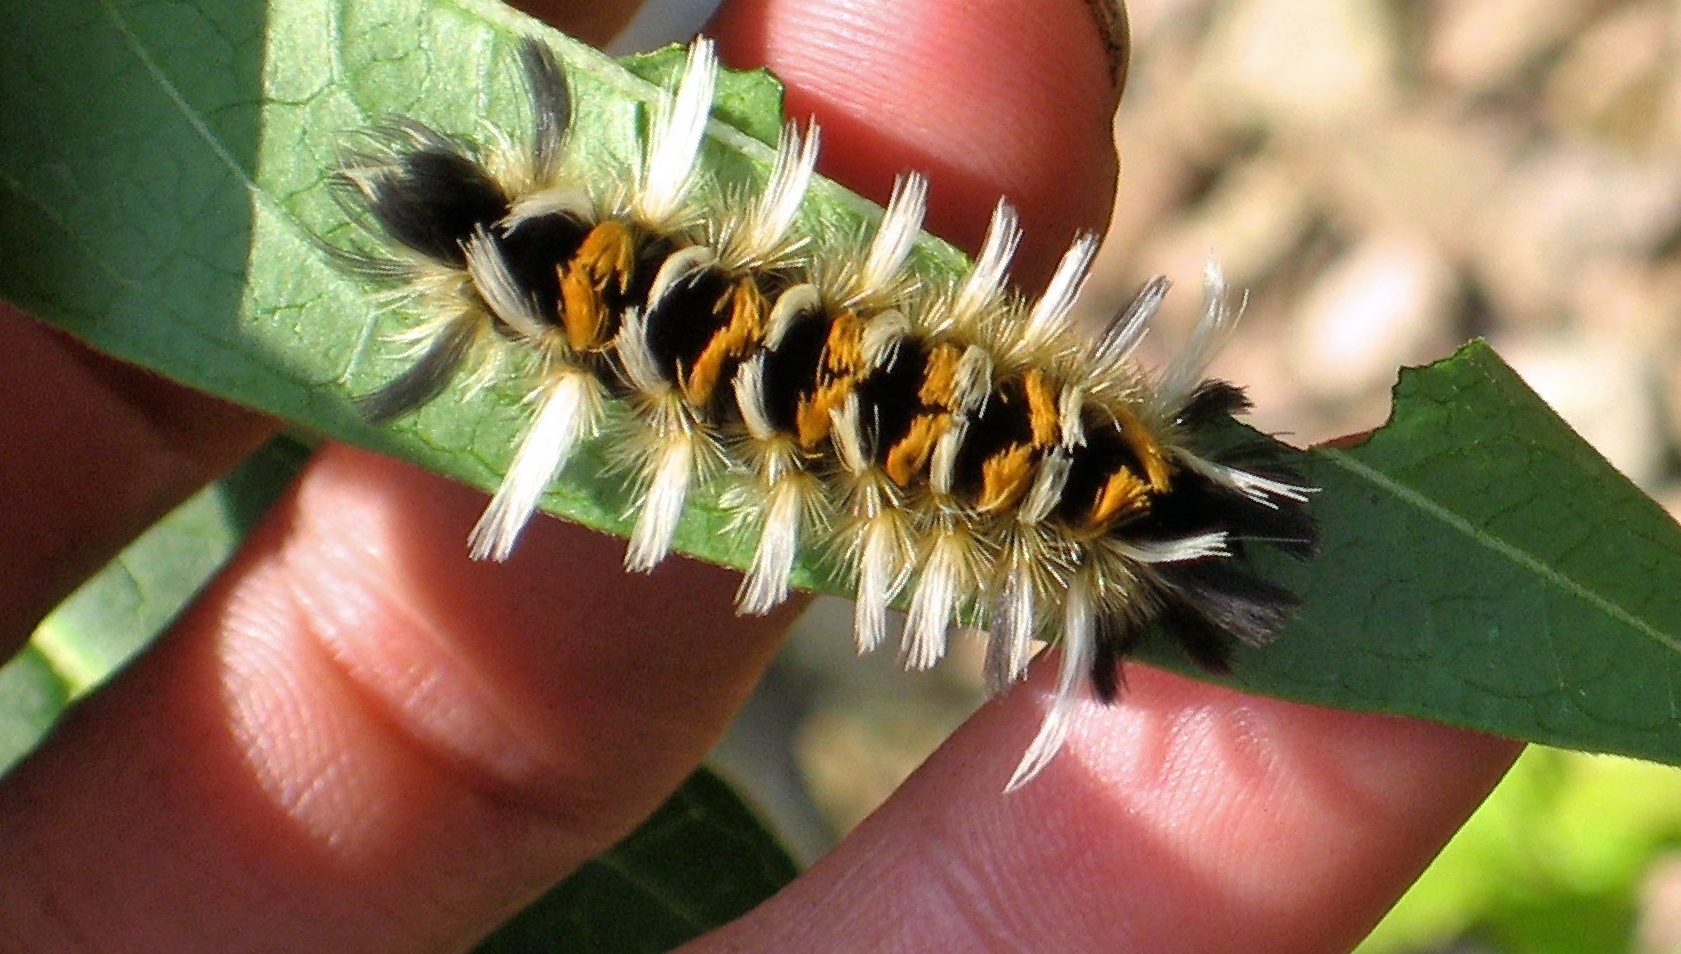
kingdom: Animalia
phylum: Arthropoda
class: Insecta
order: Lepidoptera
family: Erebidae
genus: Euchaetes
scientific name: Euchaetes egle
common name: Milkweed tussock moth
